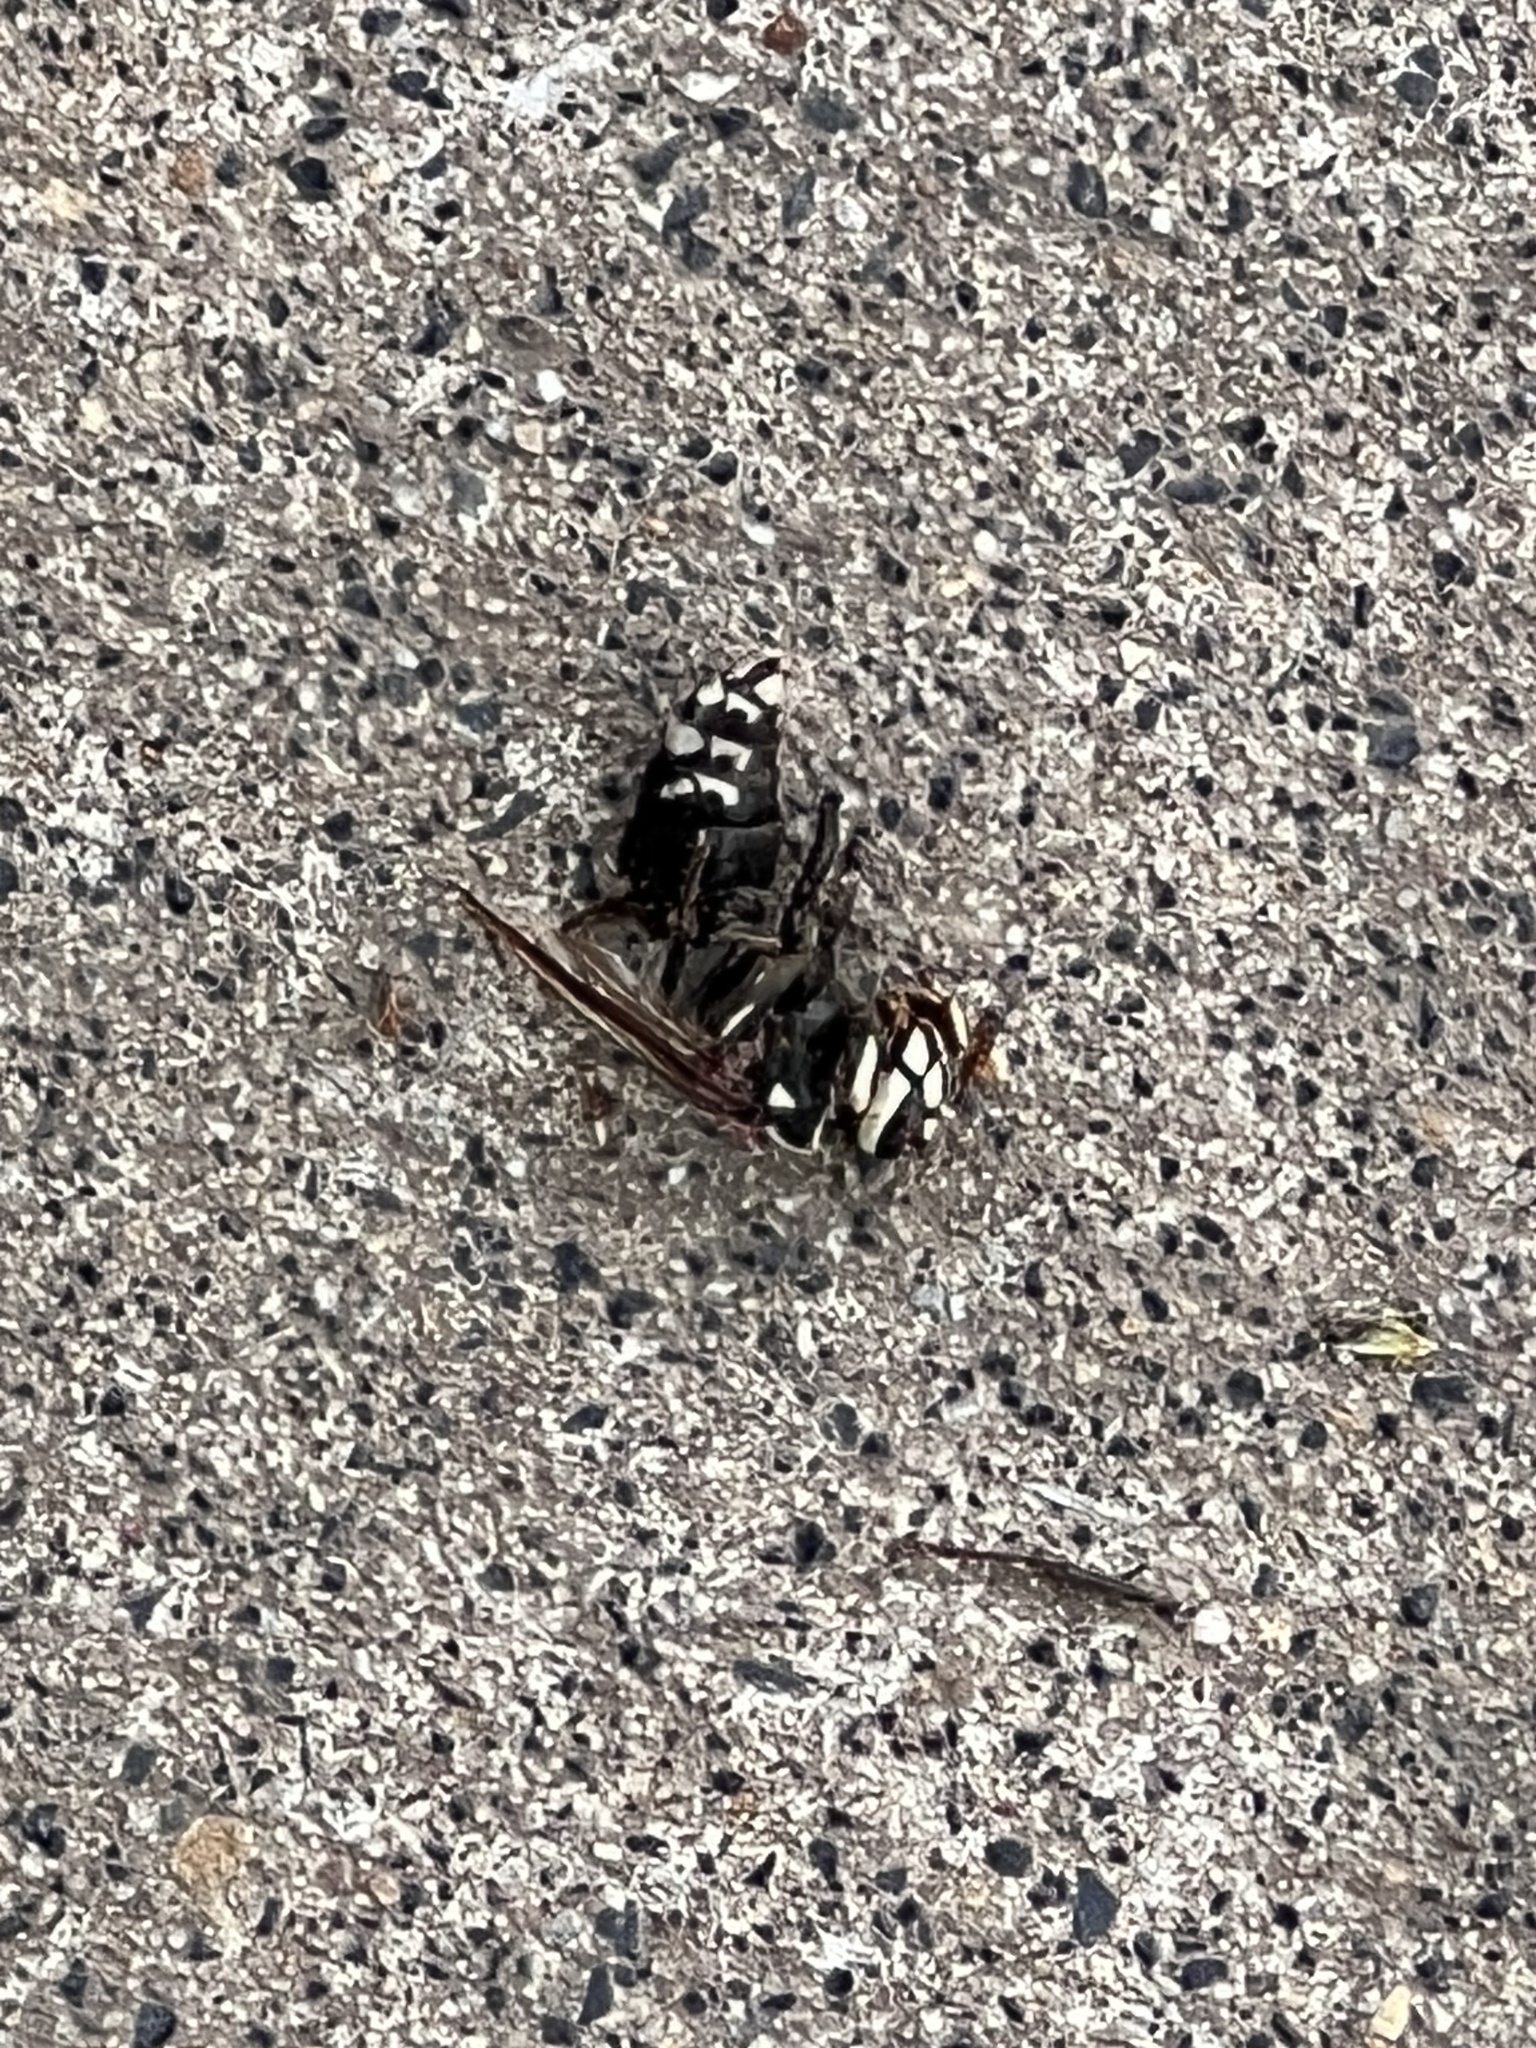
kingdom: Animalia
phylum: Arthropoda
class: Insecta
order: Hymenoptera
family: Vespidae
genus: Dolichovespula
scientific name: Dolichovespula maculata
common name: Bald-faced hornet
